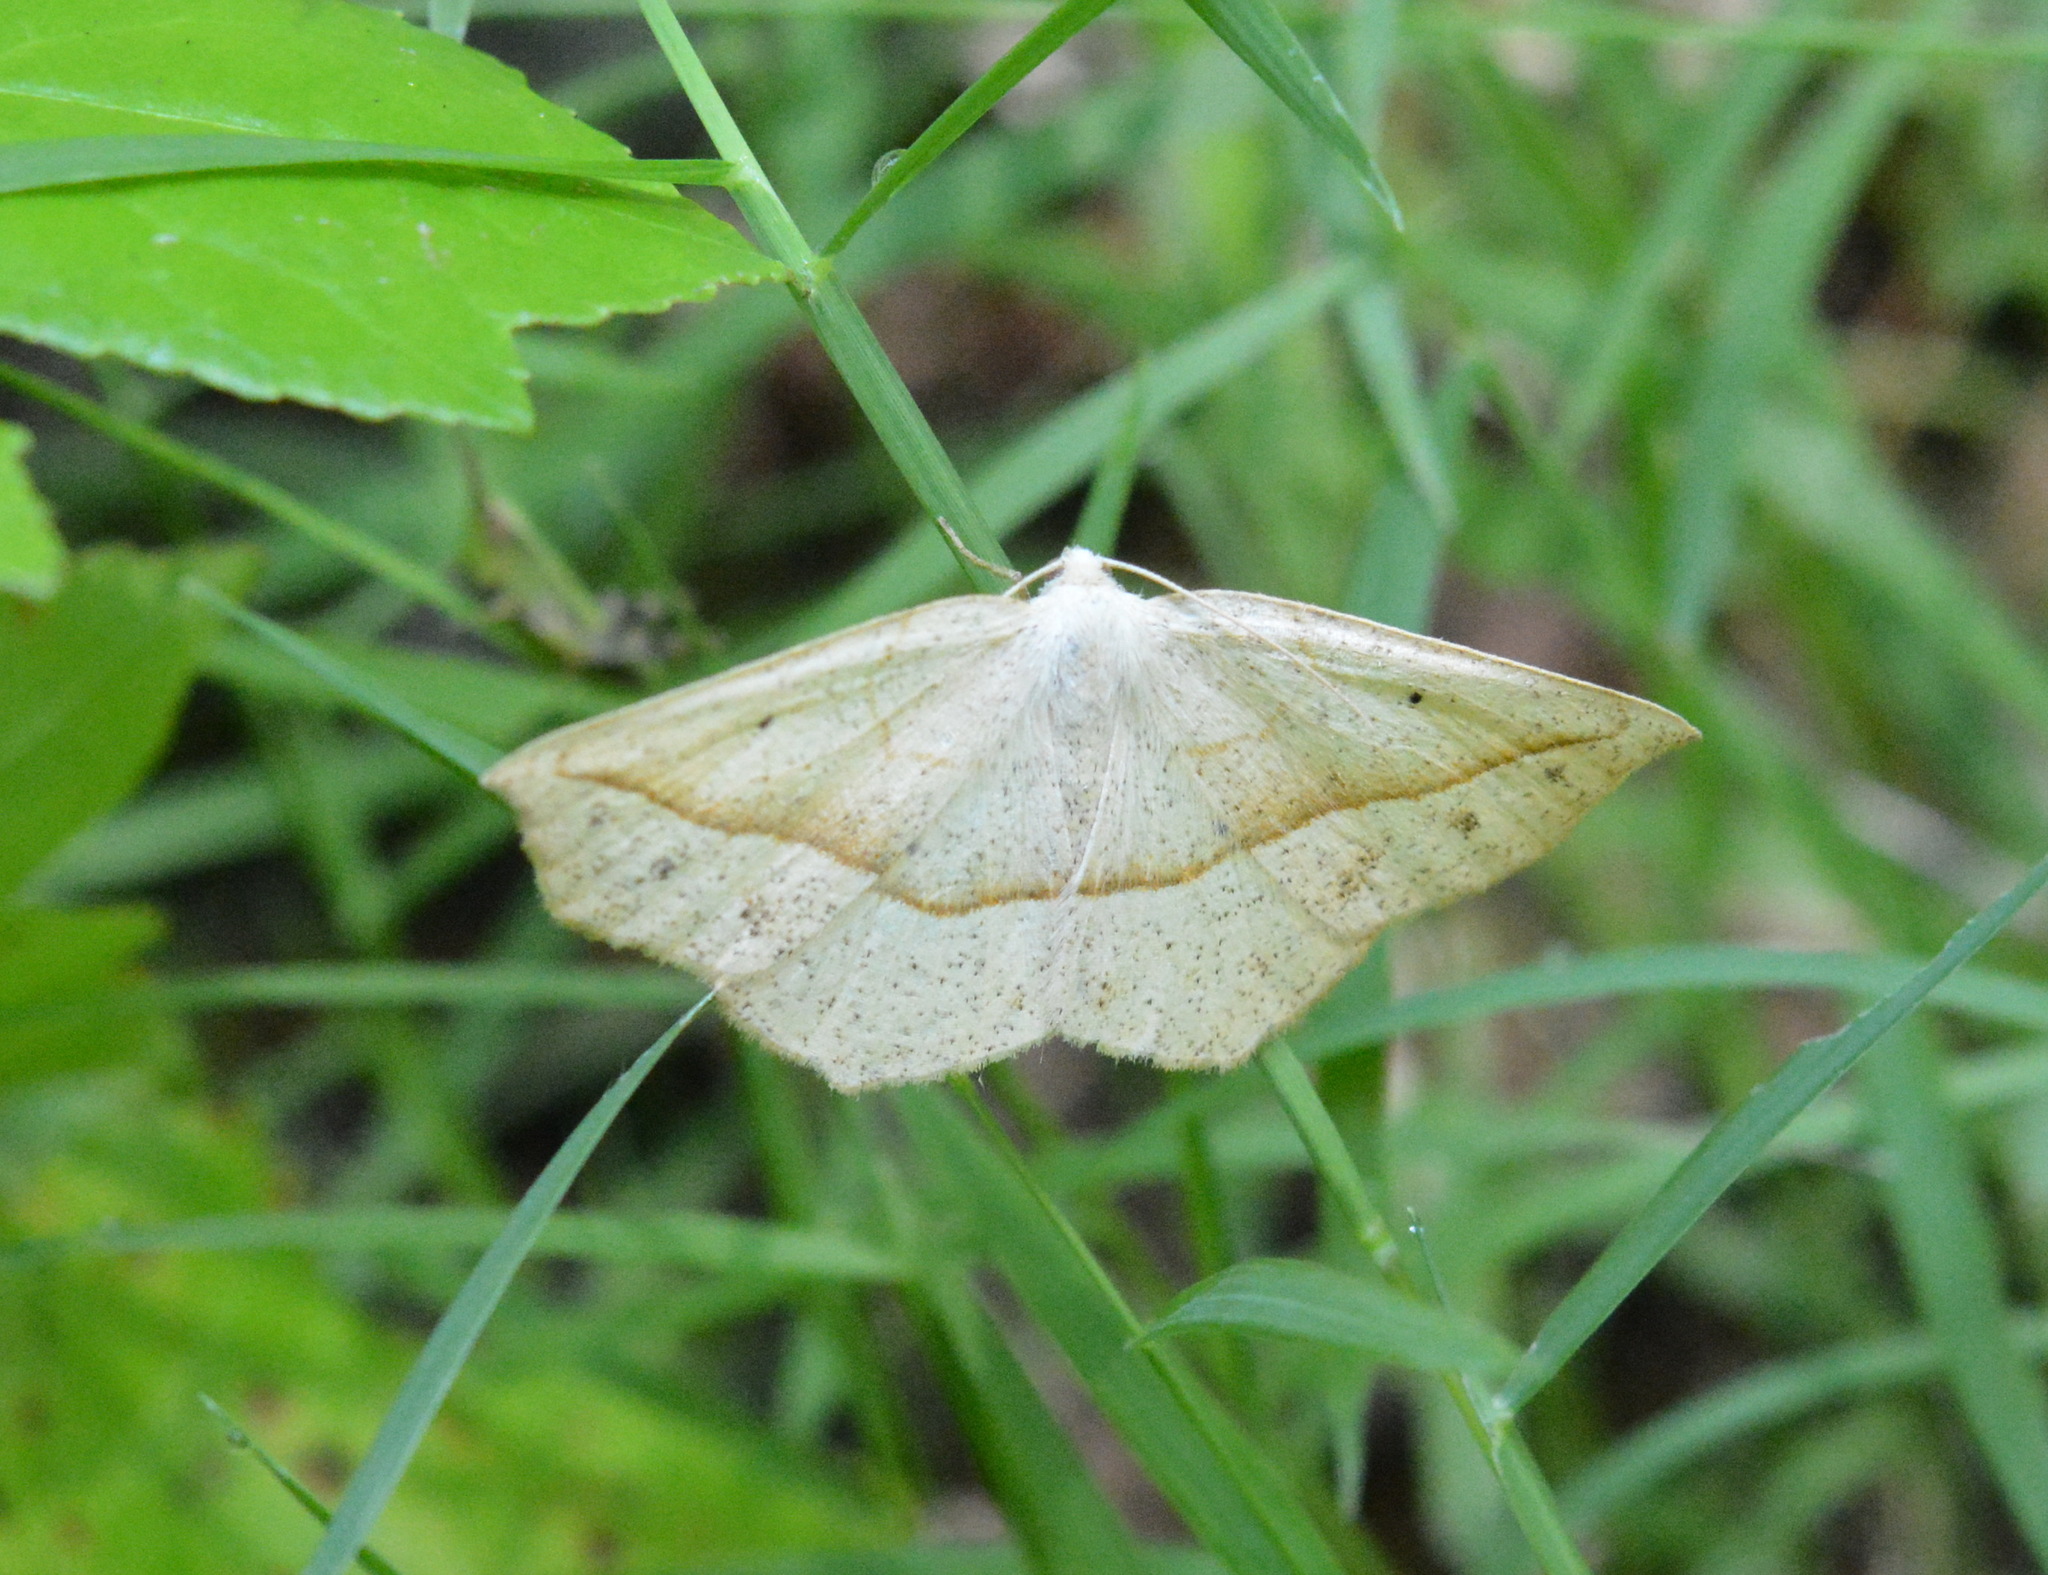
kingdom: Animalia
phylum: Arthropoda
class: Insecta
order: Lepidoptera
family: Geometridae
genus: Eusarca
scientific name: Eusarca confusaria
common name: Confused eusarca
